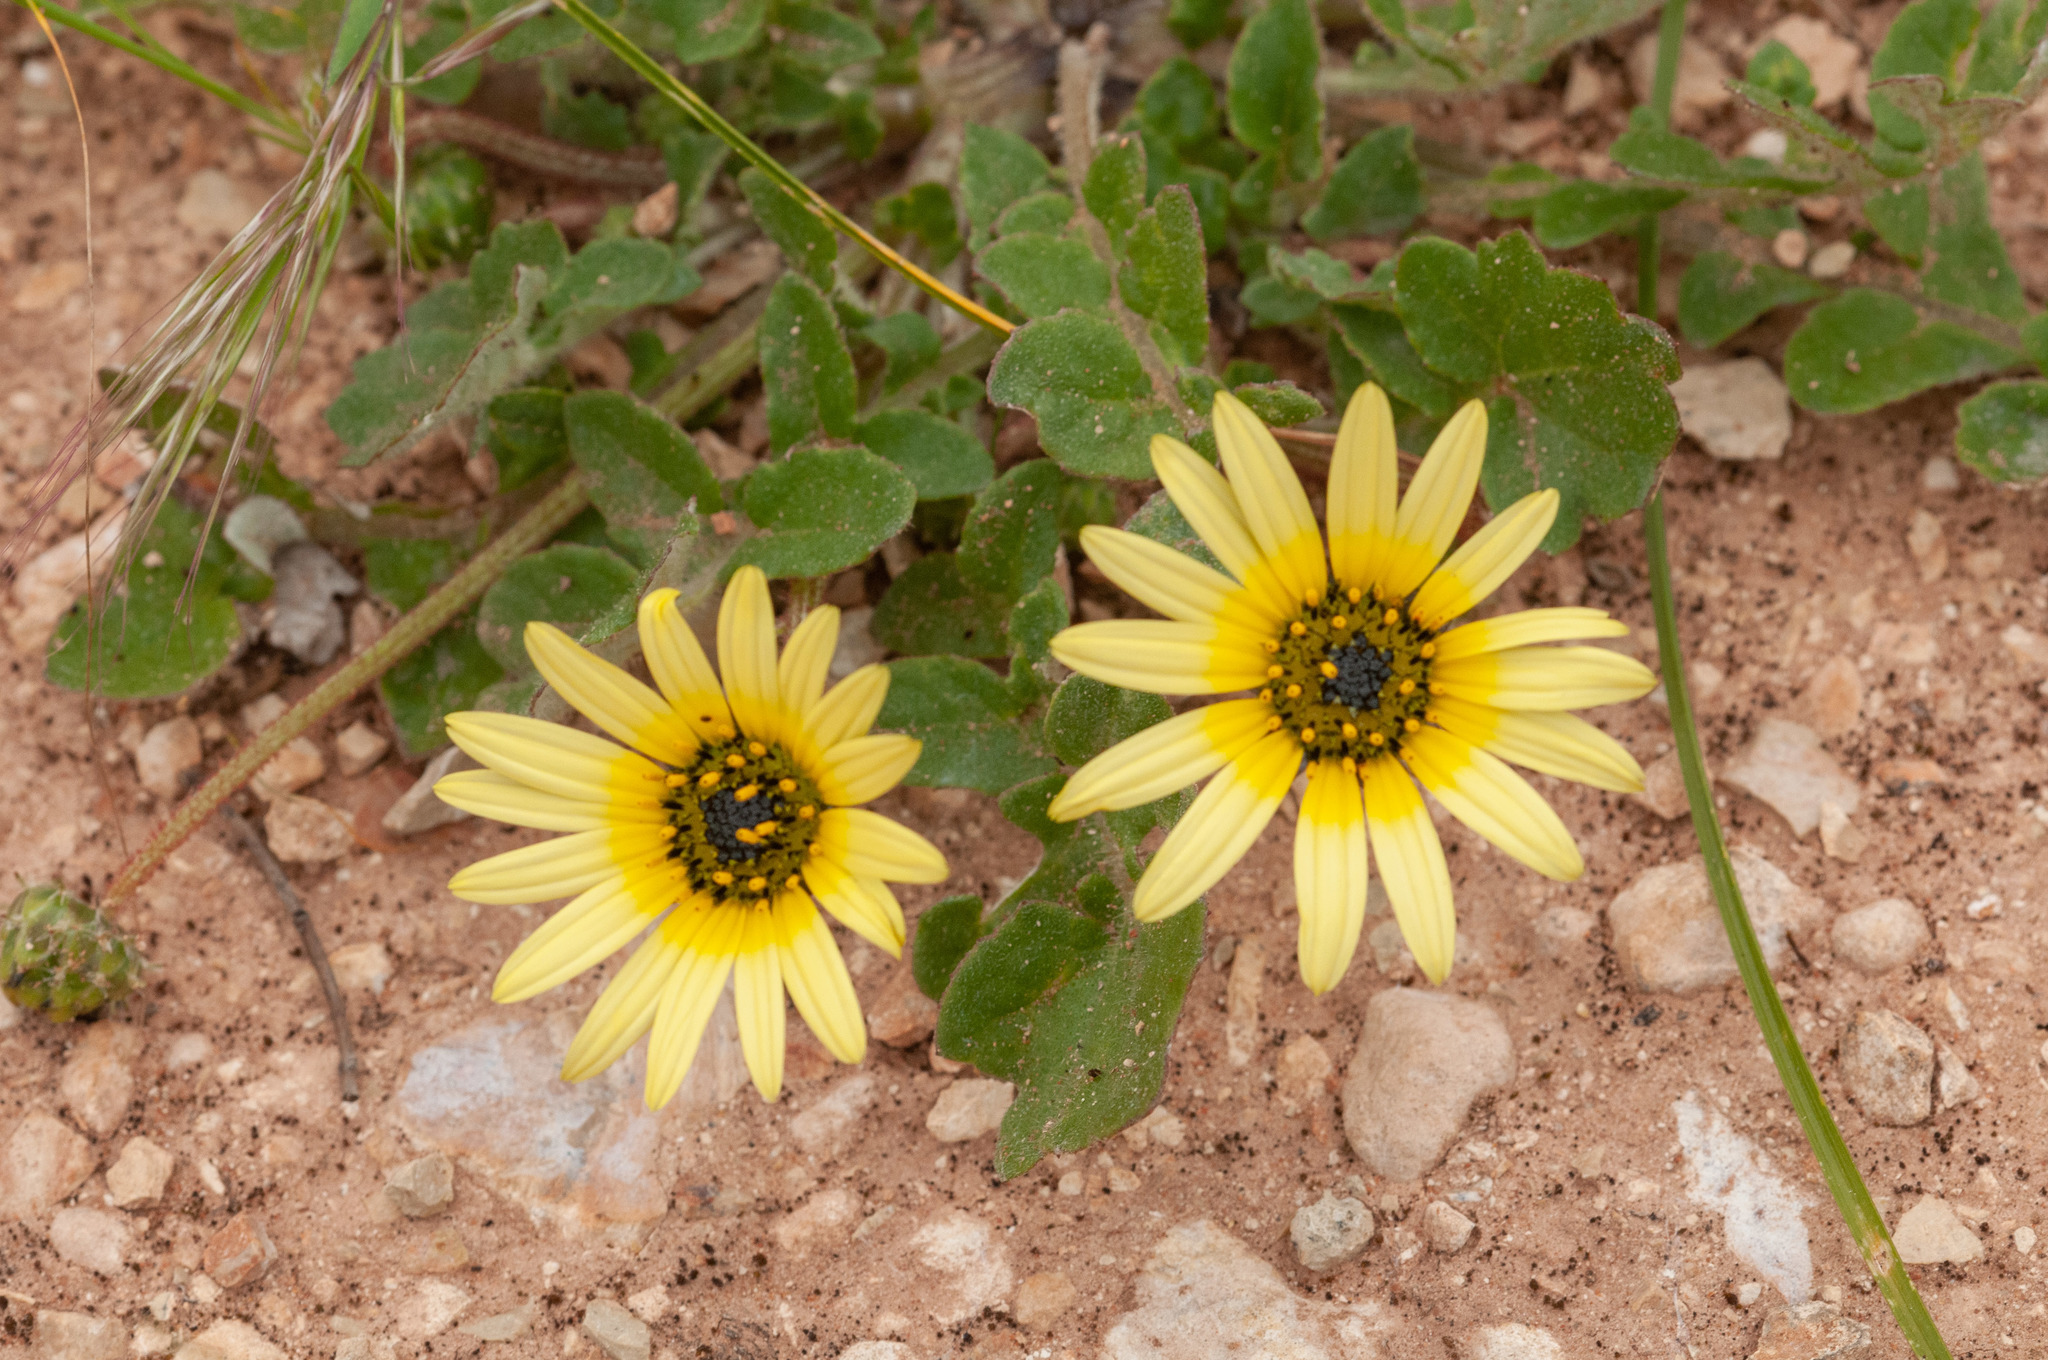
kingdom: Plantae
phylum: Tracheophyta
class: Magnoliopsida
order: Asterales
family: Asteraceae
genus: Arctotheca
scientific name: Arctotheca calendula
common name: Capeweed
